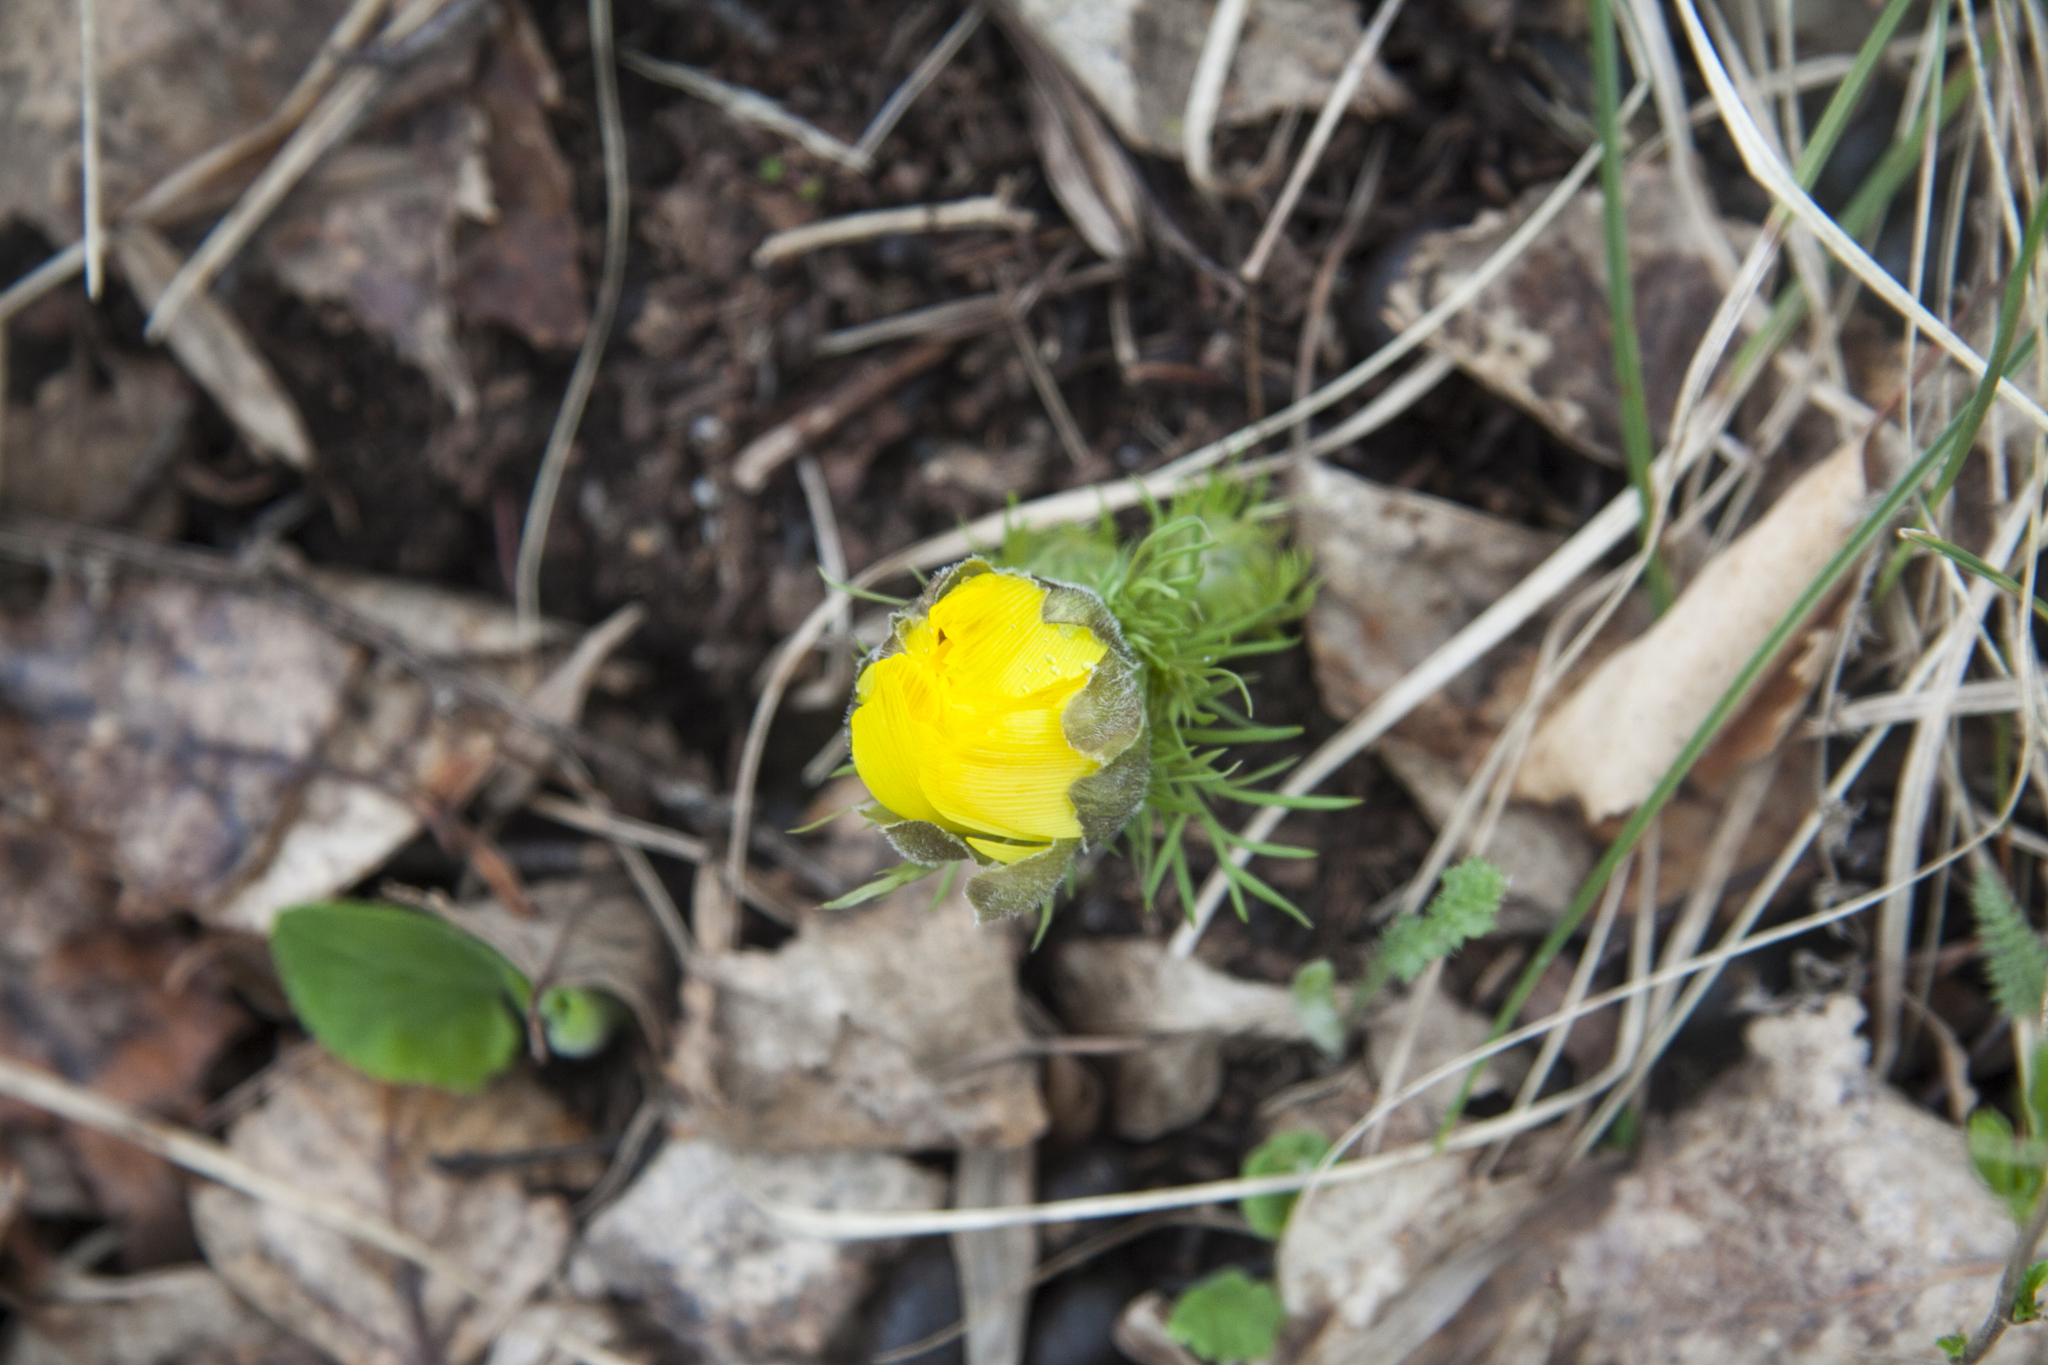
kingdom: Plantae
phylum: Tracheophyta
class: Magnoliopsida
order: Ranunculales
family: Ranunculaceae
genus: Adonis
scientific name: Adonis vernalis
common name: Yellow pheasants-eye
